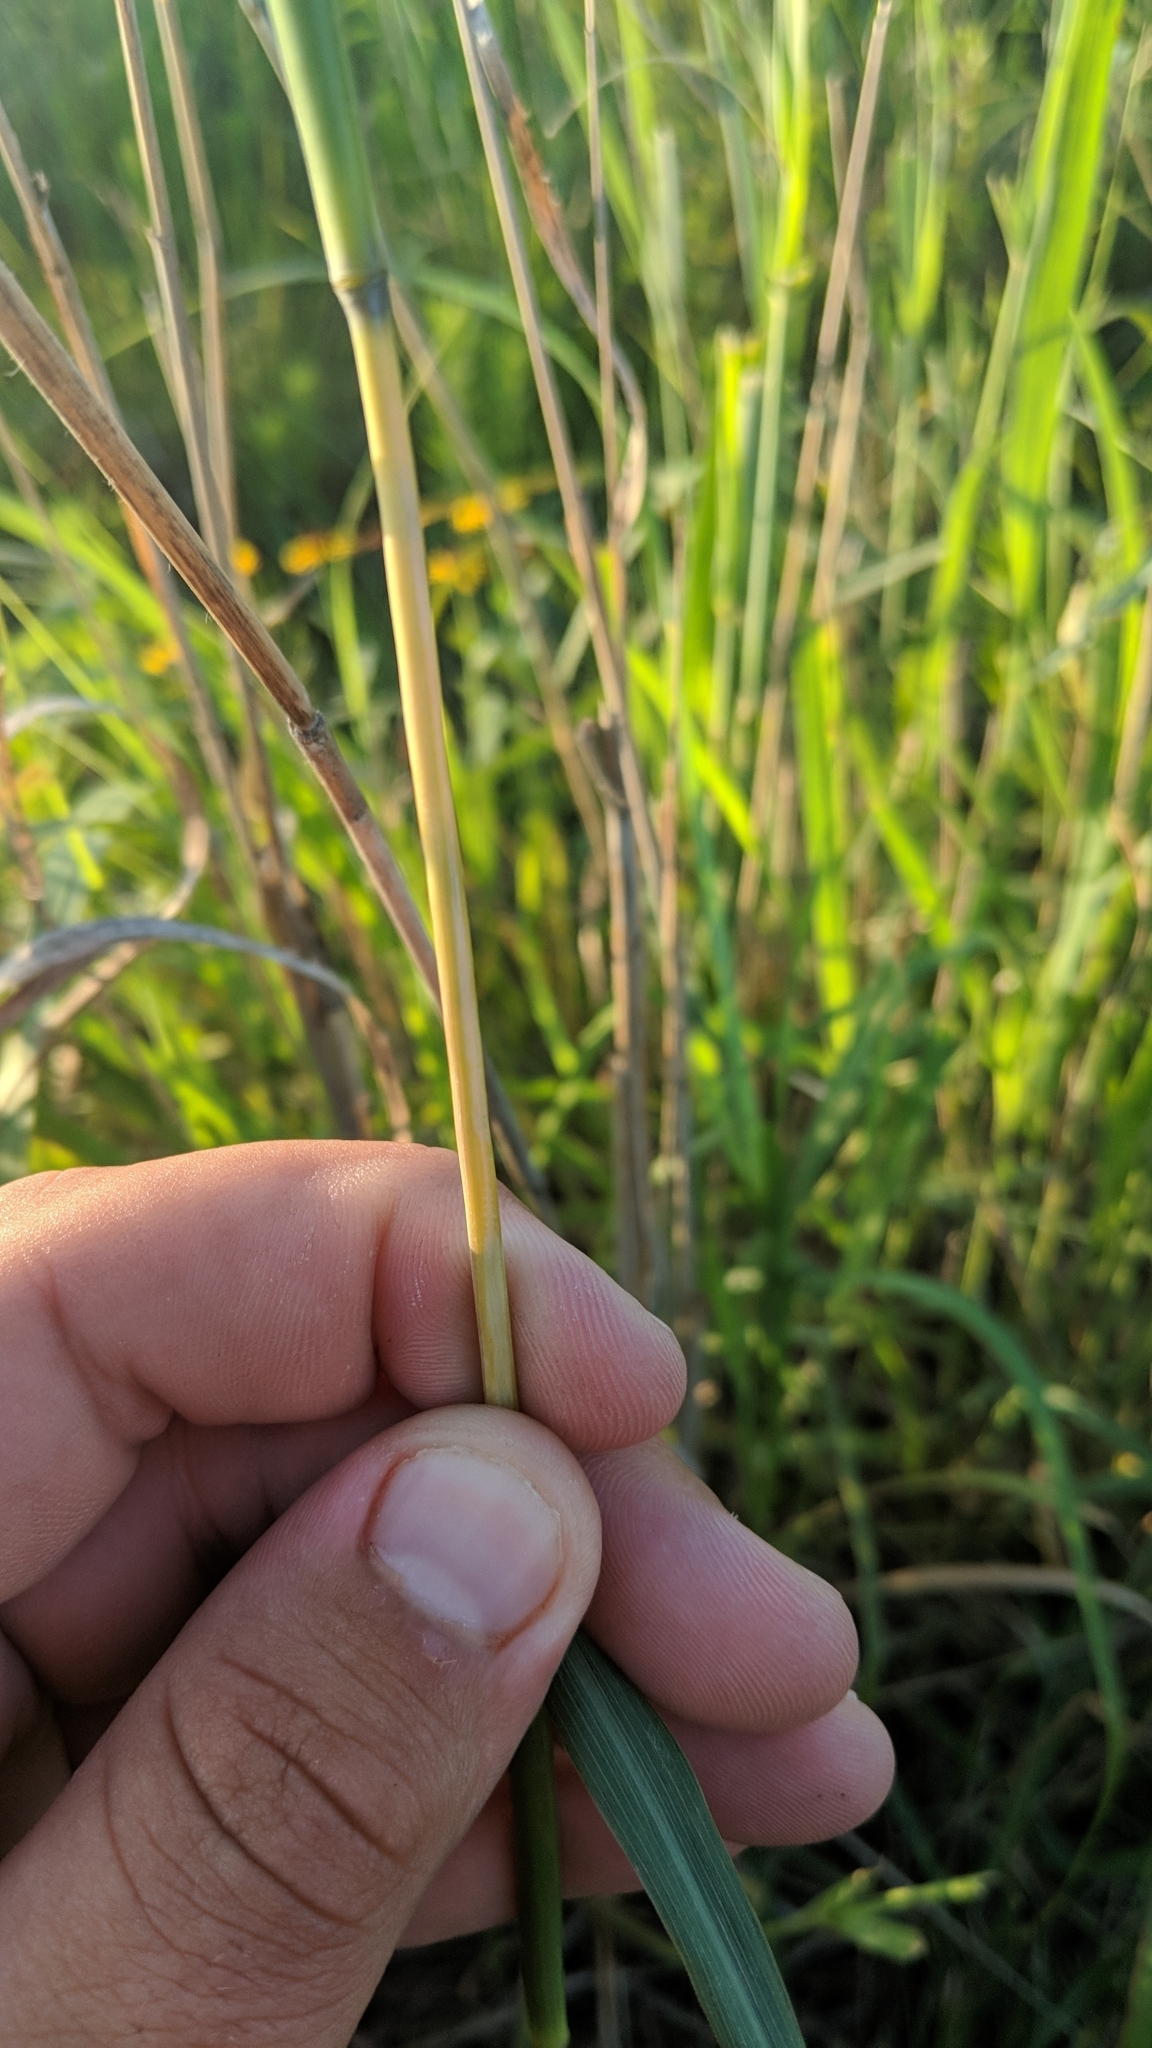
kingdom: Plantae
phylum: Tracheophyta
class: Liliopsida
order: Poales
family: Poaceae
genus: Andropogon
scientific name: Andropogon gerardi
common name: Big bluestem
